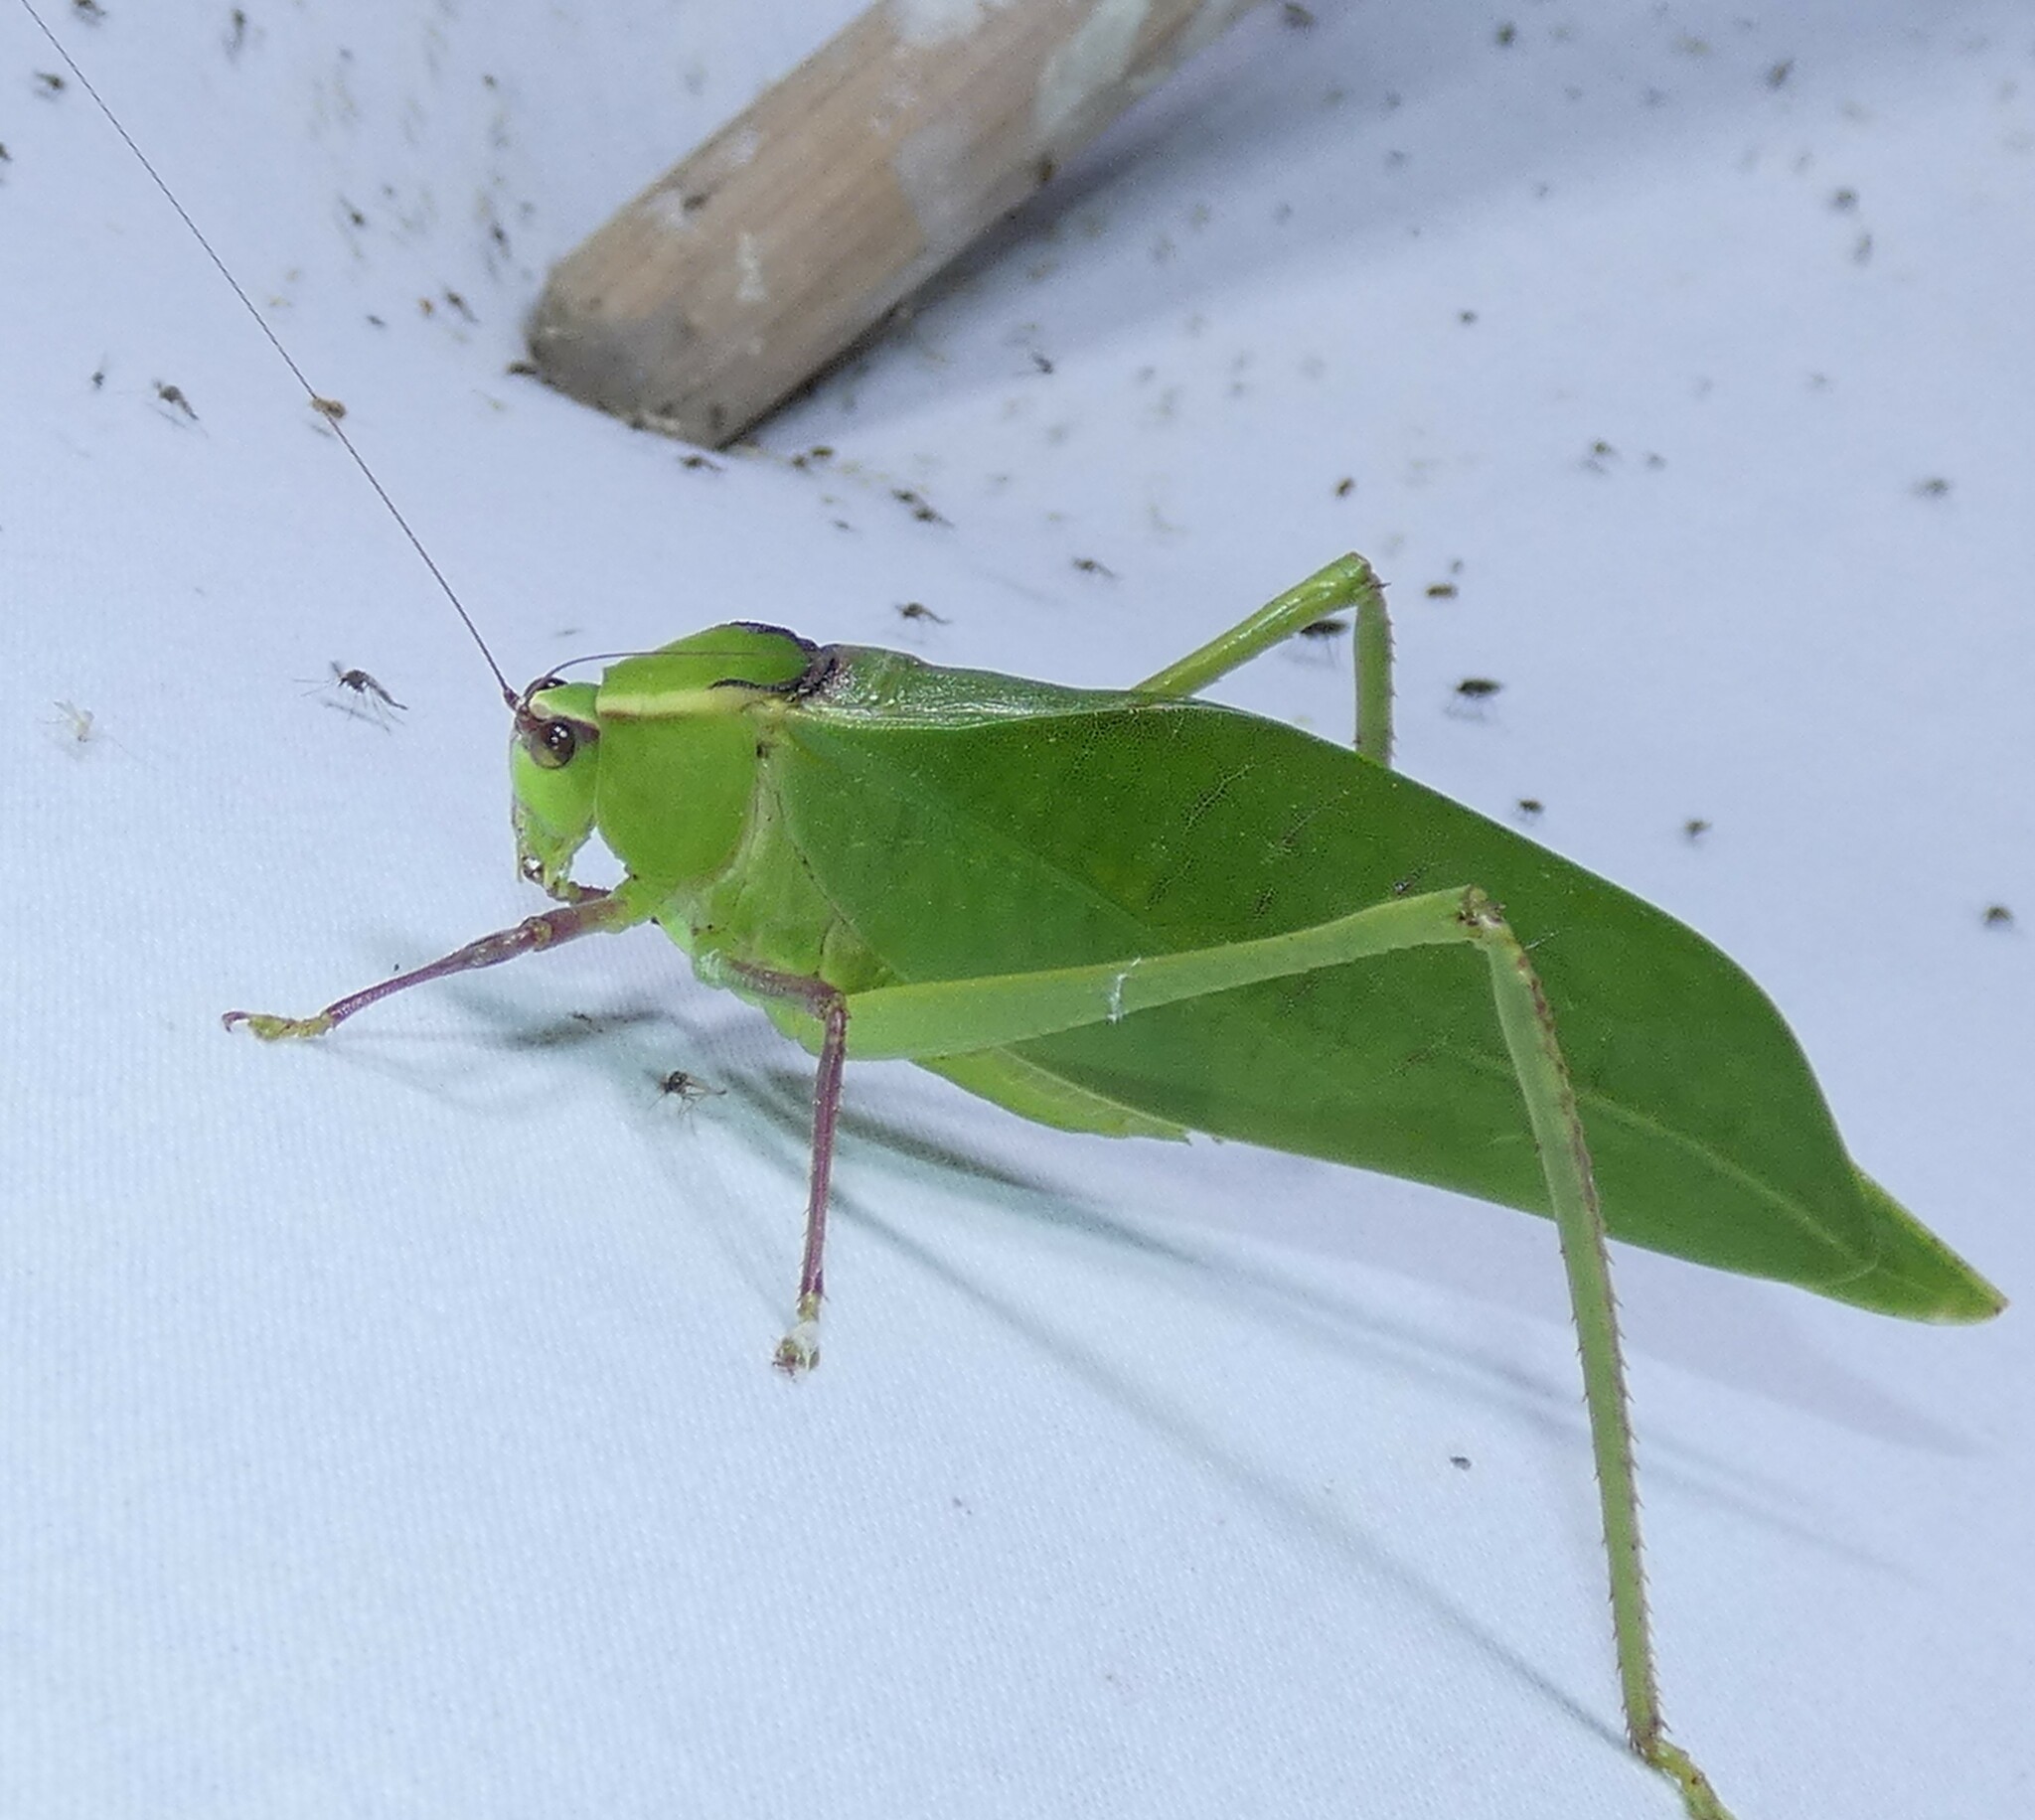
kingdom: Animalia
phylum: Arthropoda
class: Insecta
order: Orthoptera
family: Tettigoniidae
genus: Stilpnochlora
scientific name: Stilpnochlora couloniana
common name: Giant katydid
